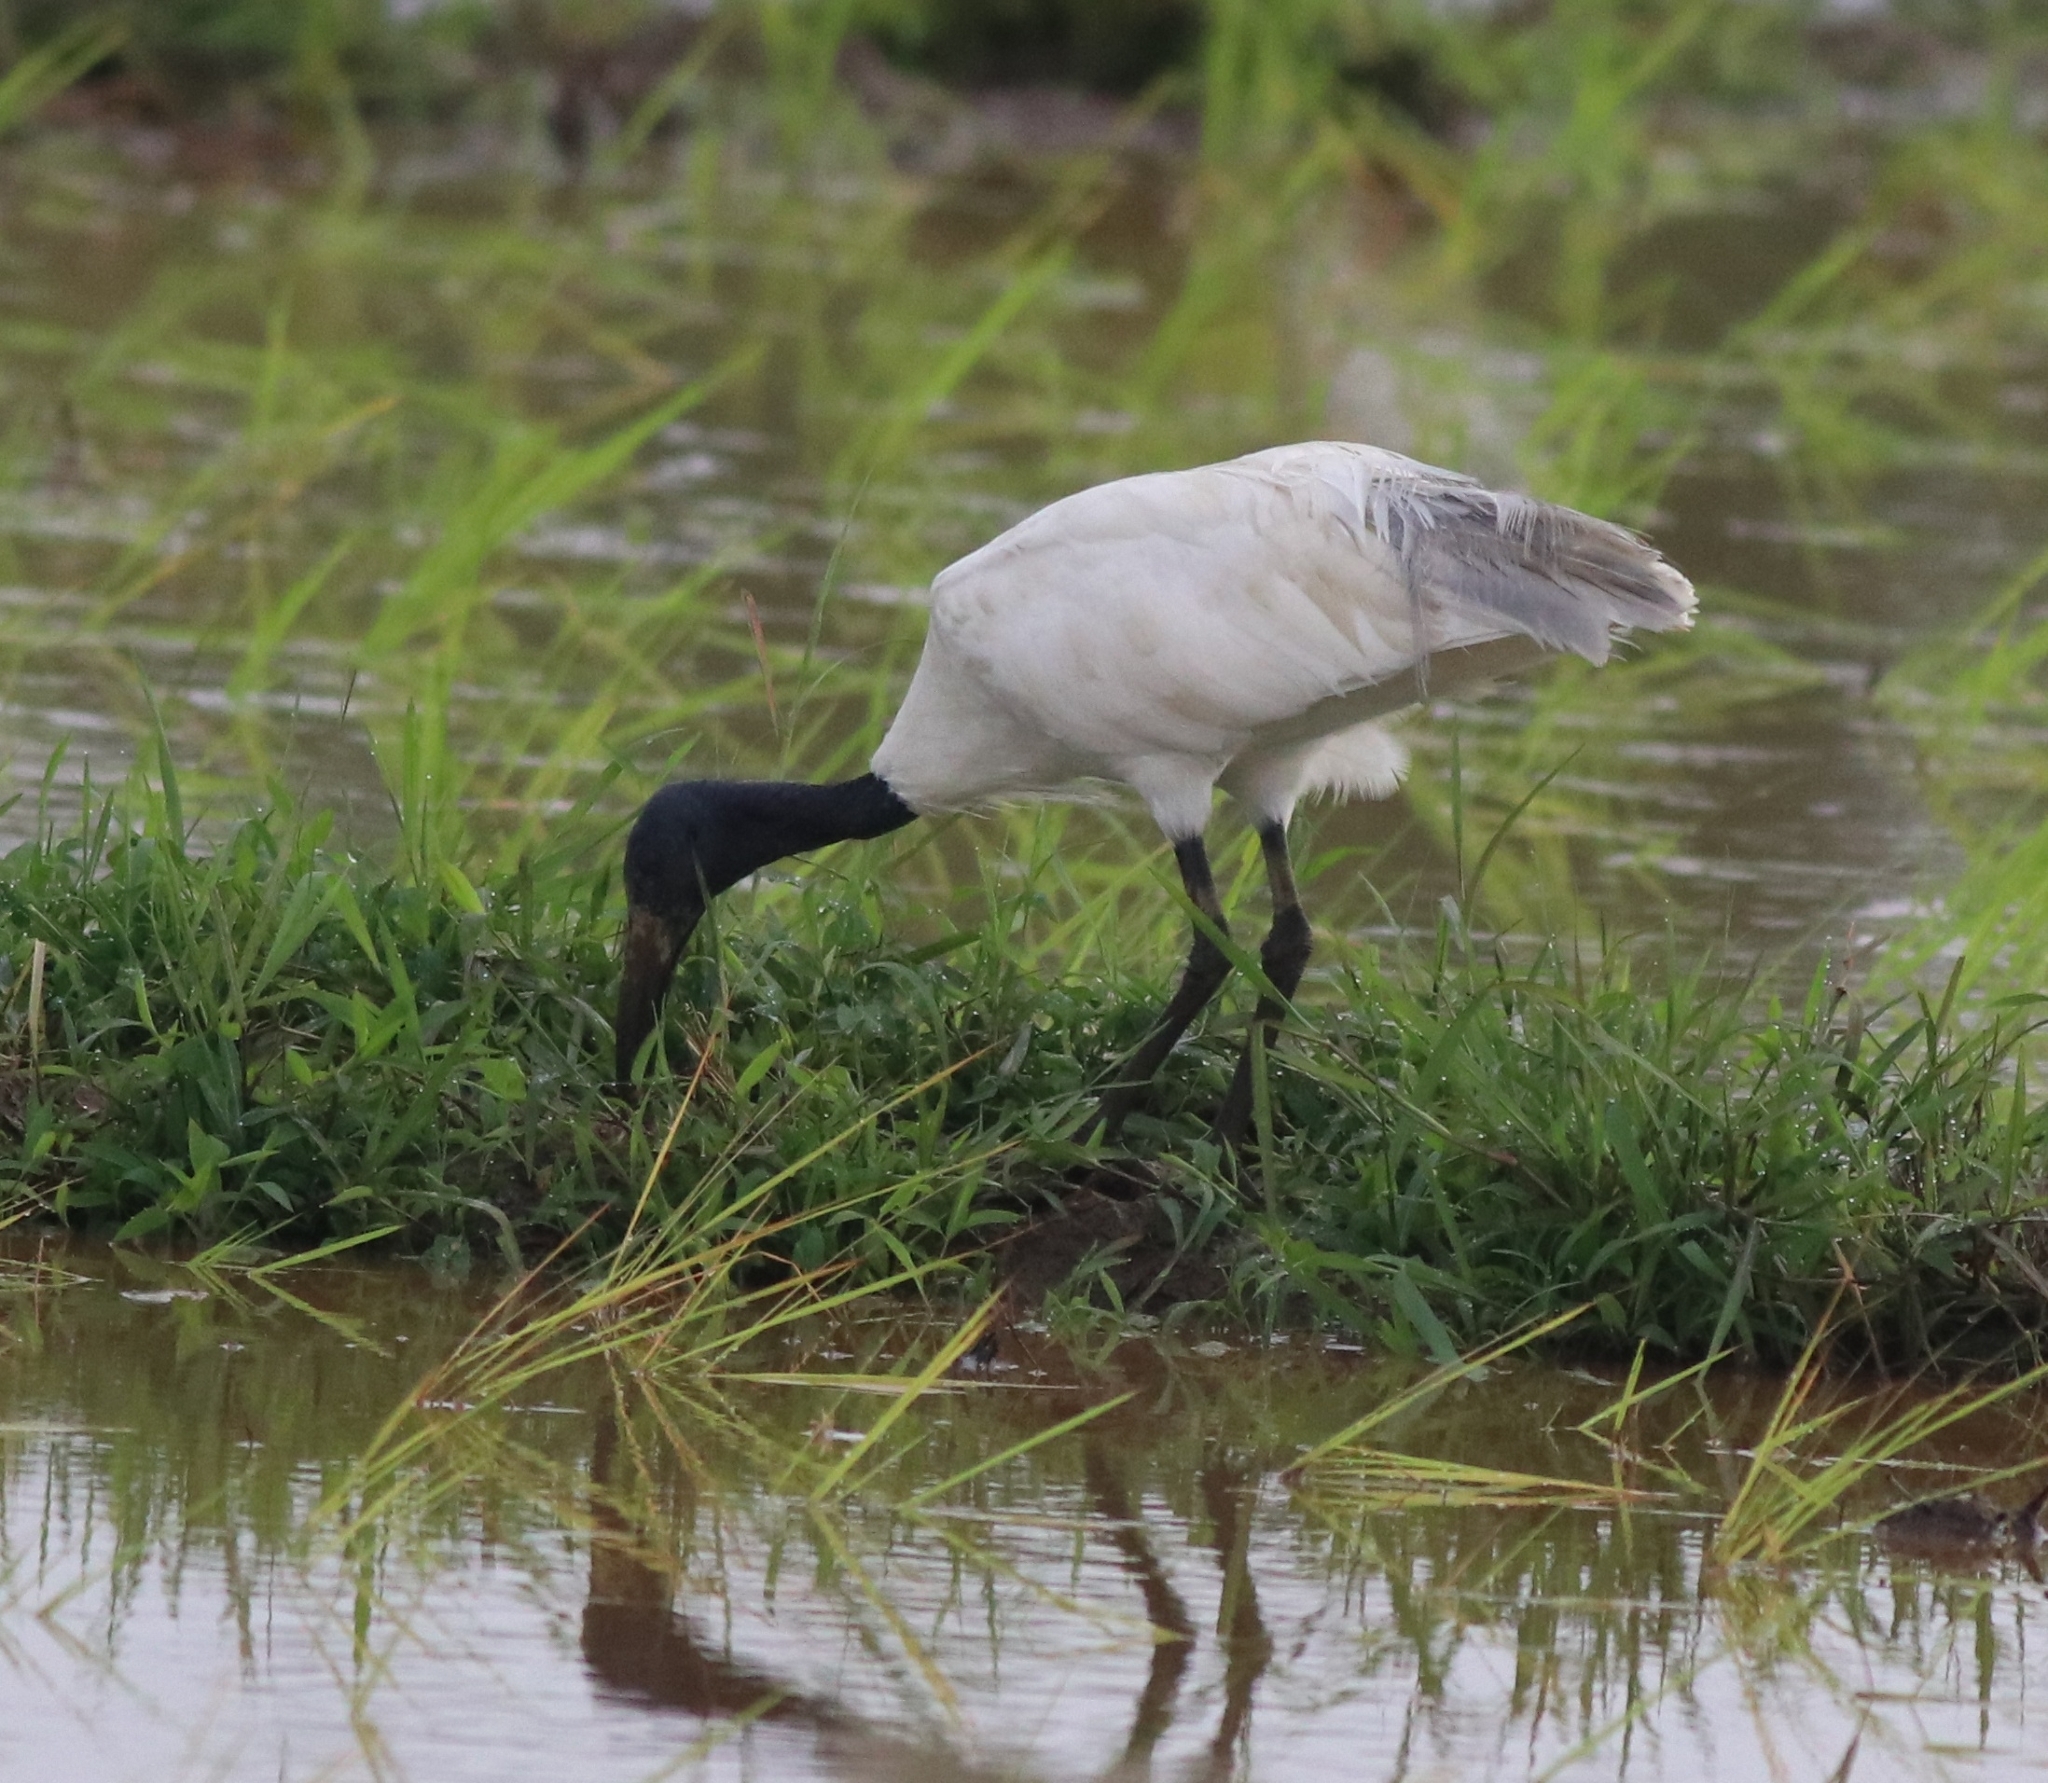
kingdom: Animalia
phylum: Chordata
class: Aves
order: Pelecaniformes
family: Threskiornithidae
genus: Threskiornis
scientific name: Threskiornis melanocephalus
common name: Black-headed ibis
